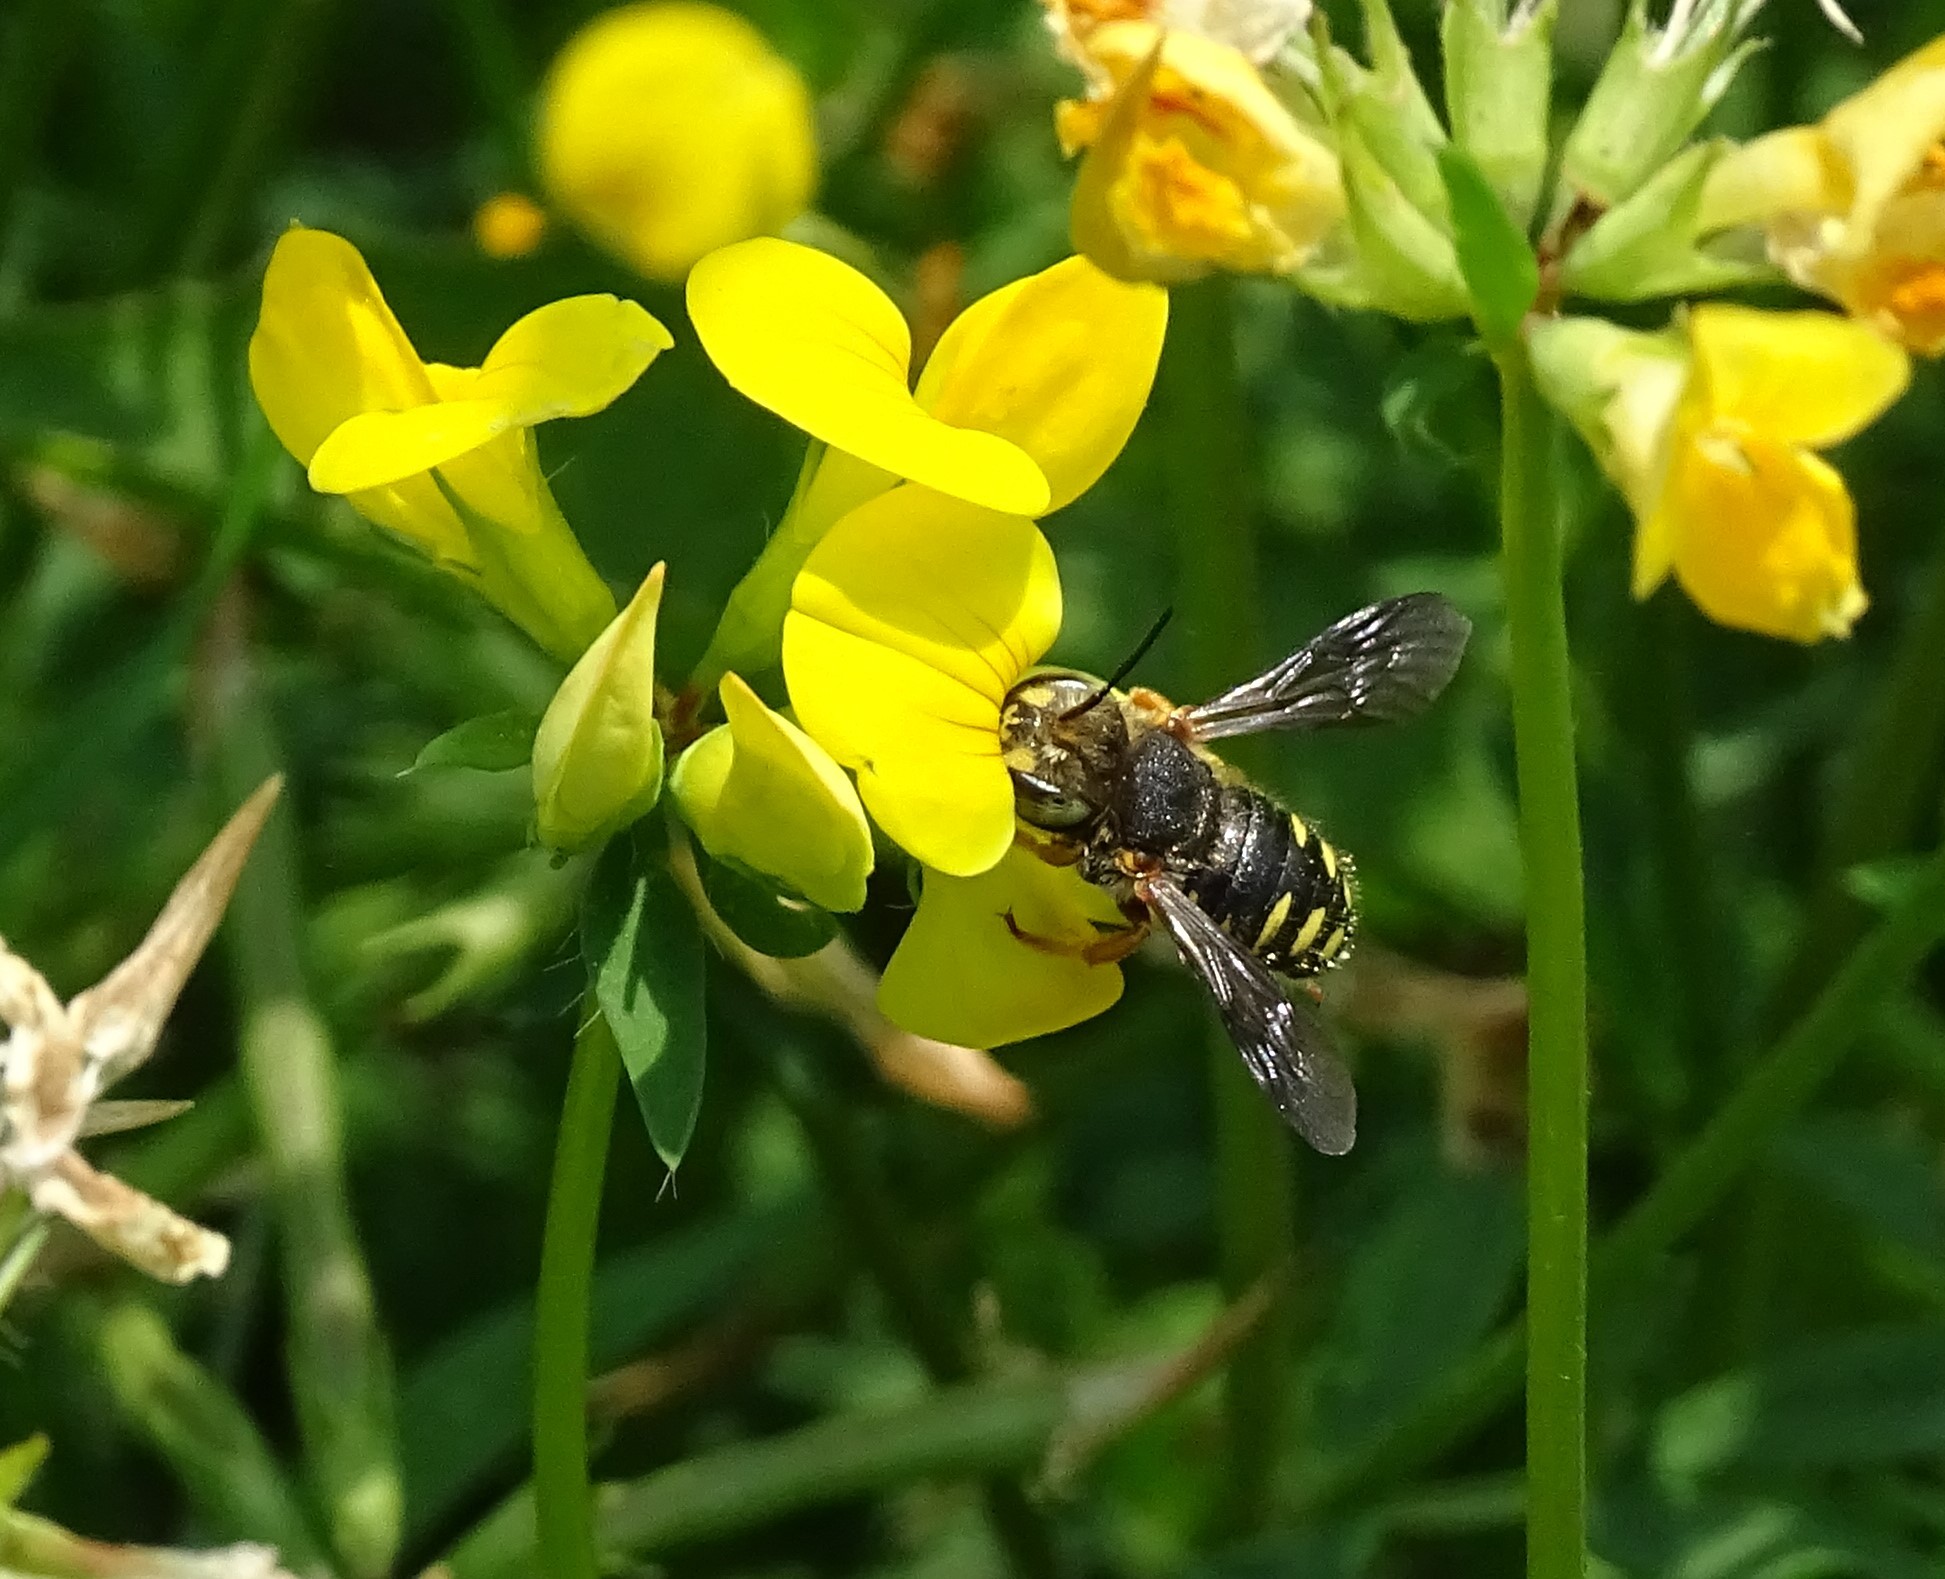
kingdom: Animalia
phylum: Arthropoda
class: Insecta
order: Hymenoptera
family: Megachilidae
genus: Anthidium
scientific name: Anthidium oblongatum
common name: Oblong wool carder bee
